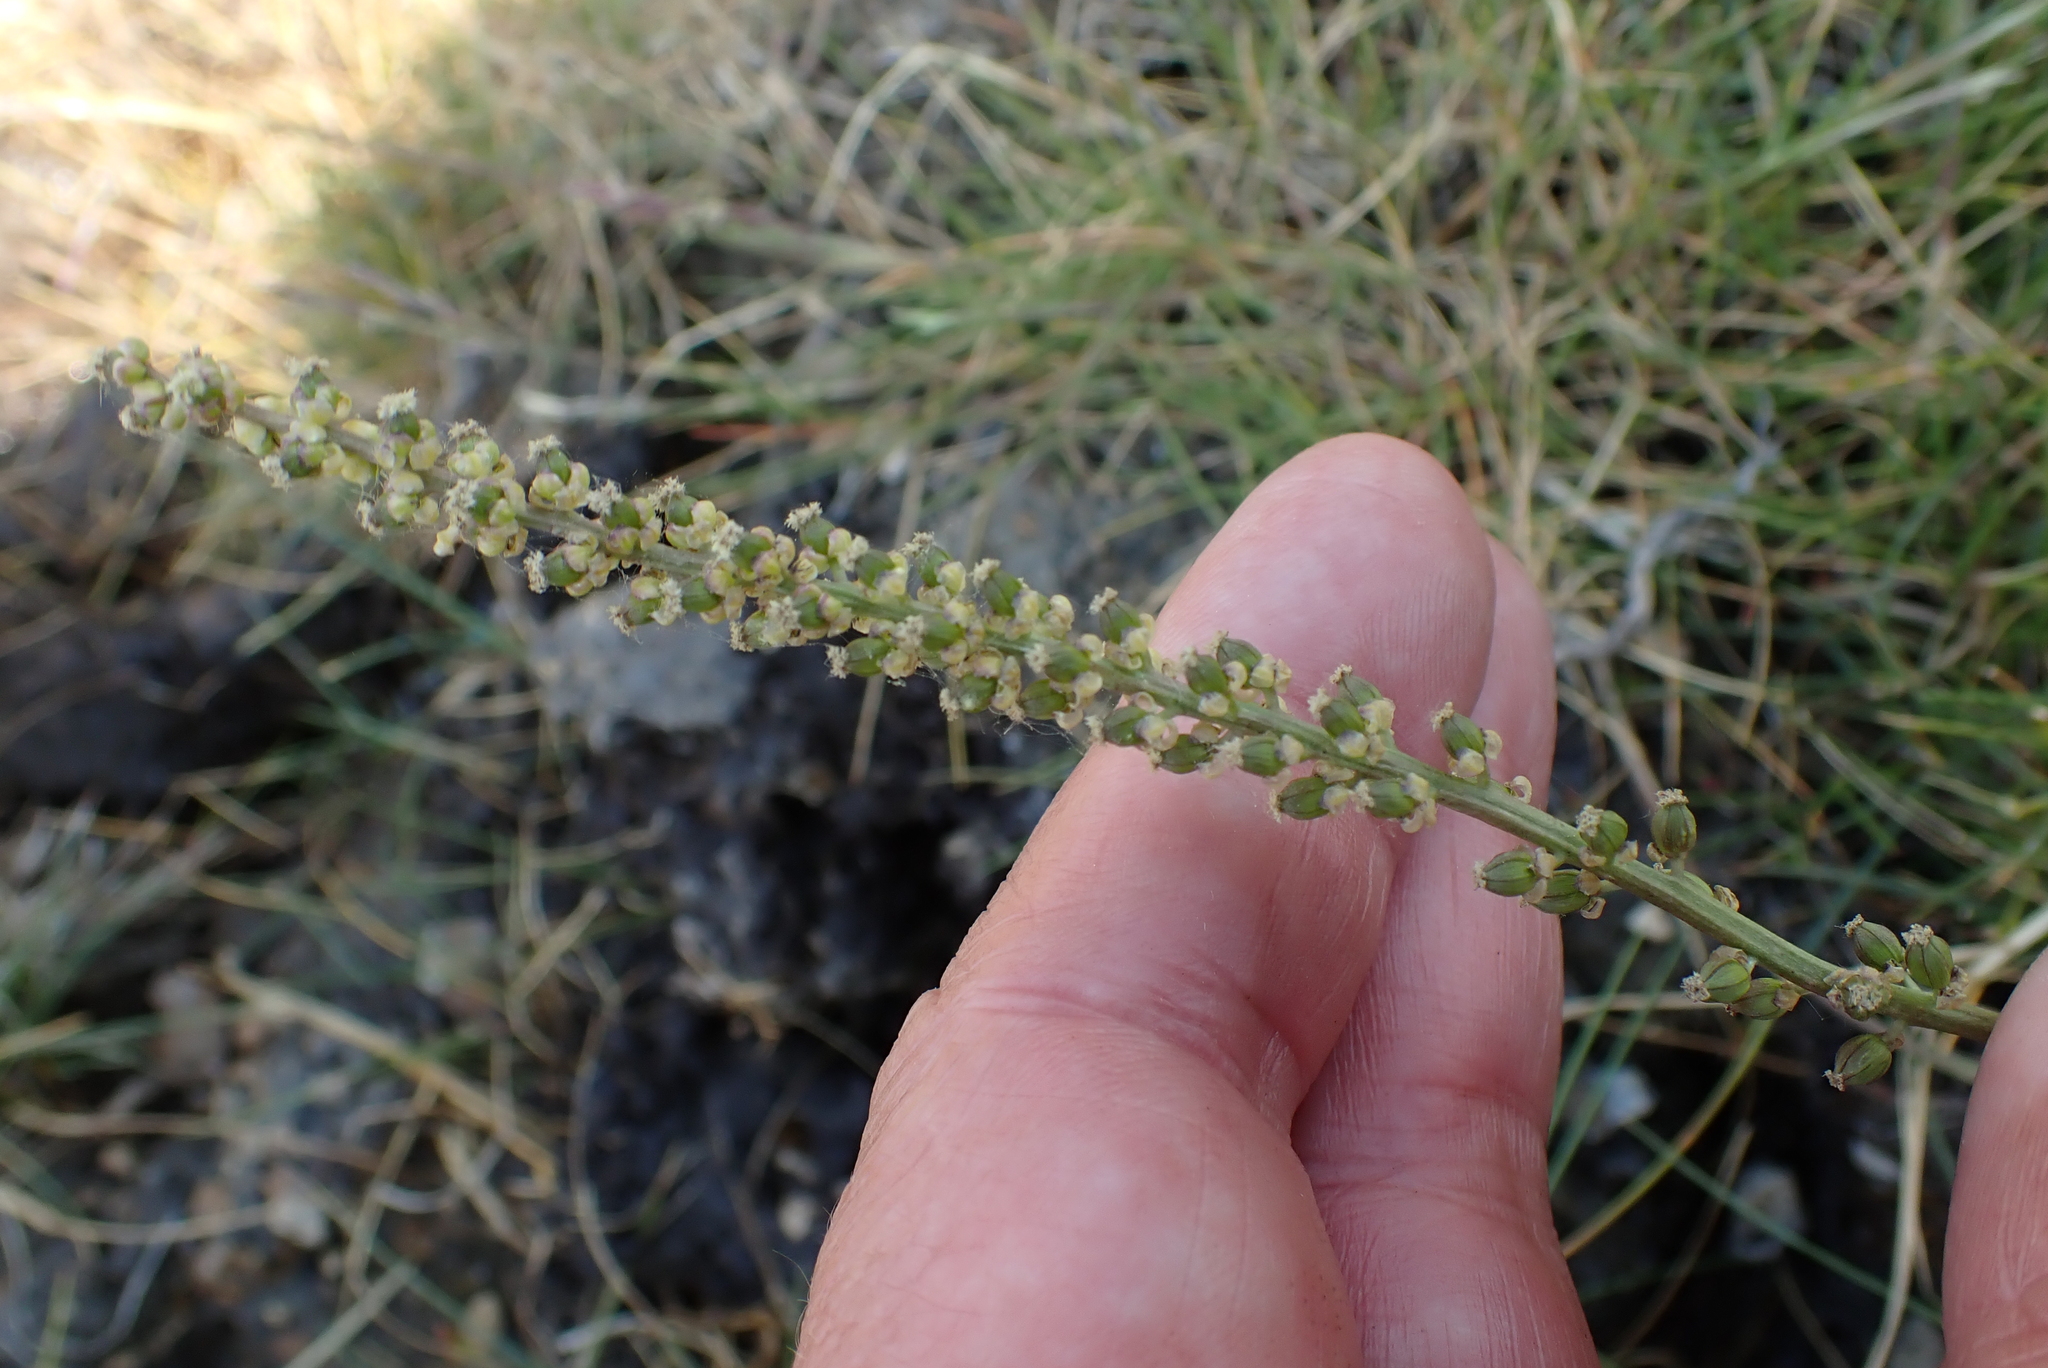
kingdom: Plantae
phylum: Tracheophyta
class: Liliopsida
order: Alismatales
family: Juncaginaceae
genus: Triglochin
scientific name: Triglochin maritima
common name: Sea arrowgrass
